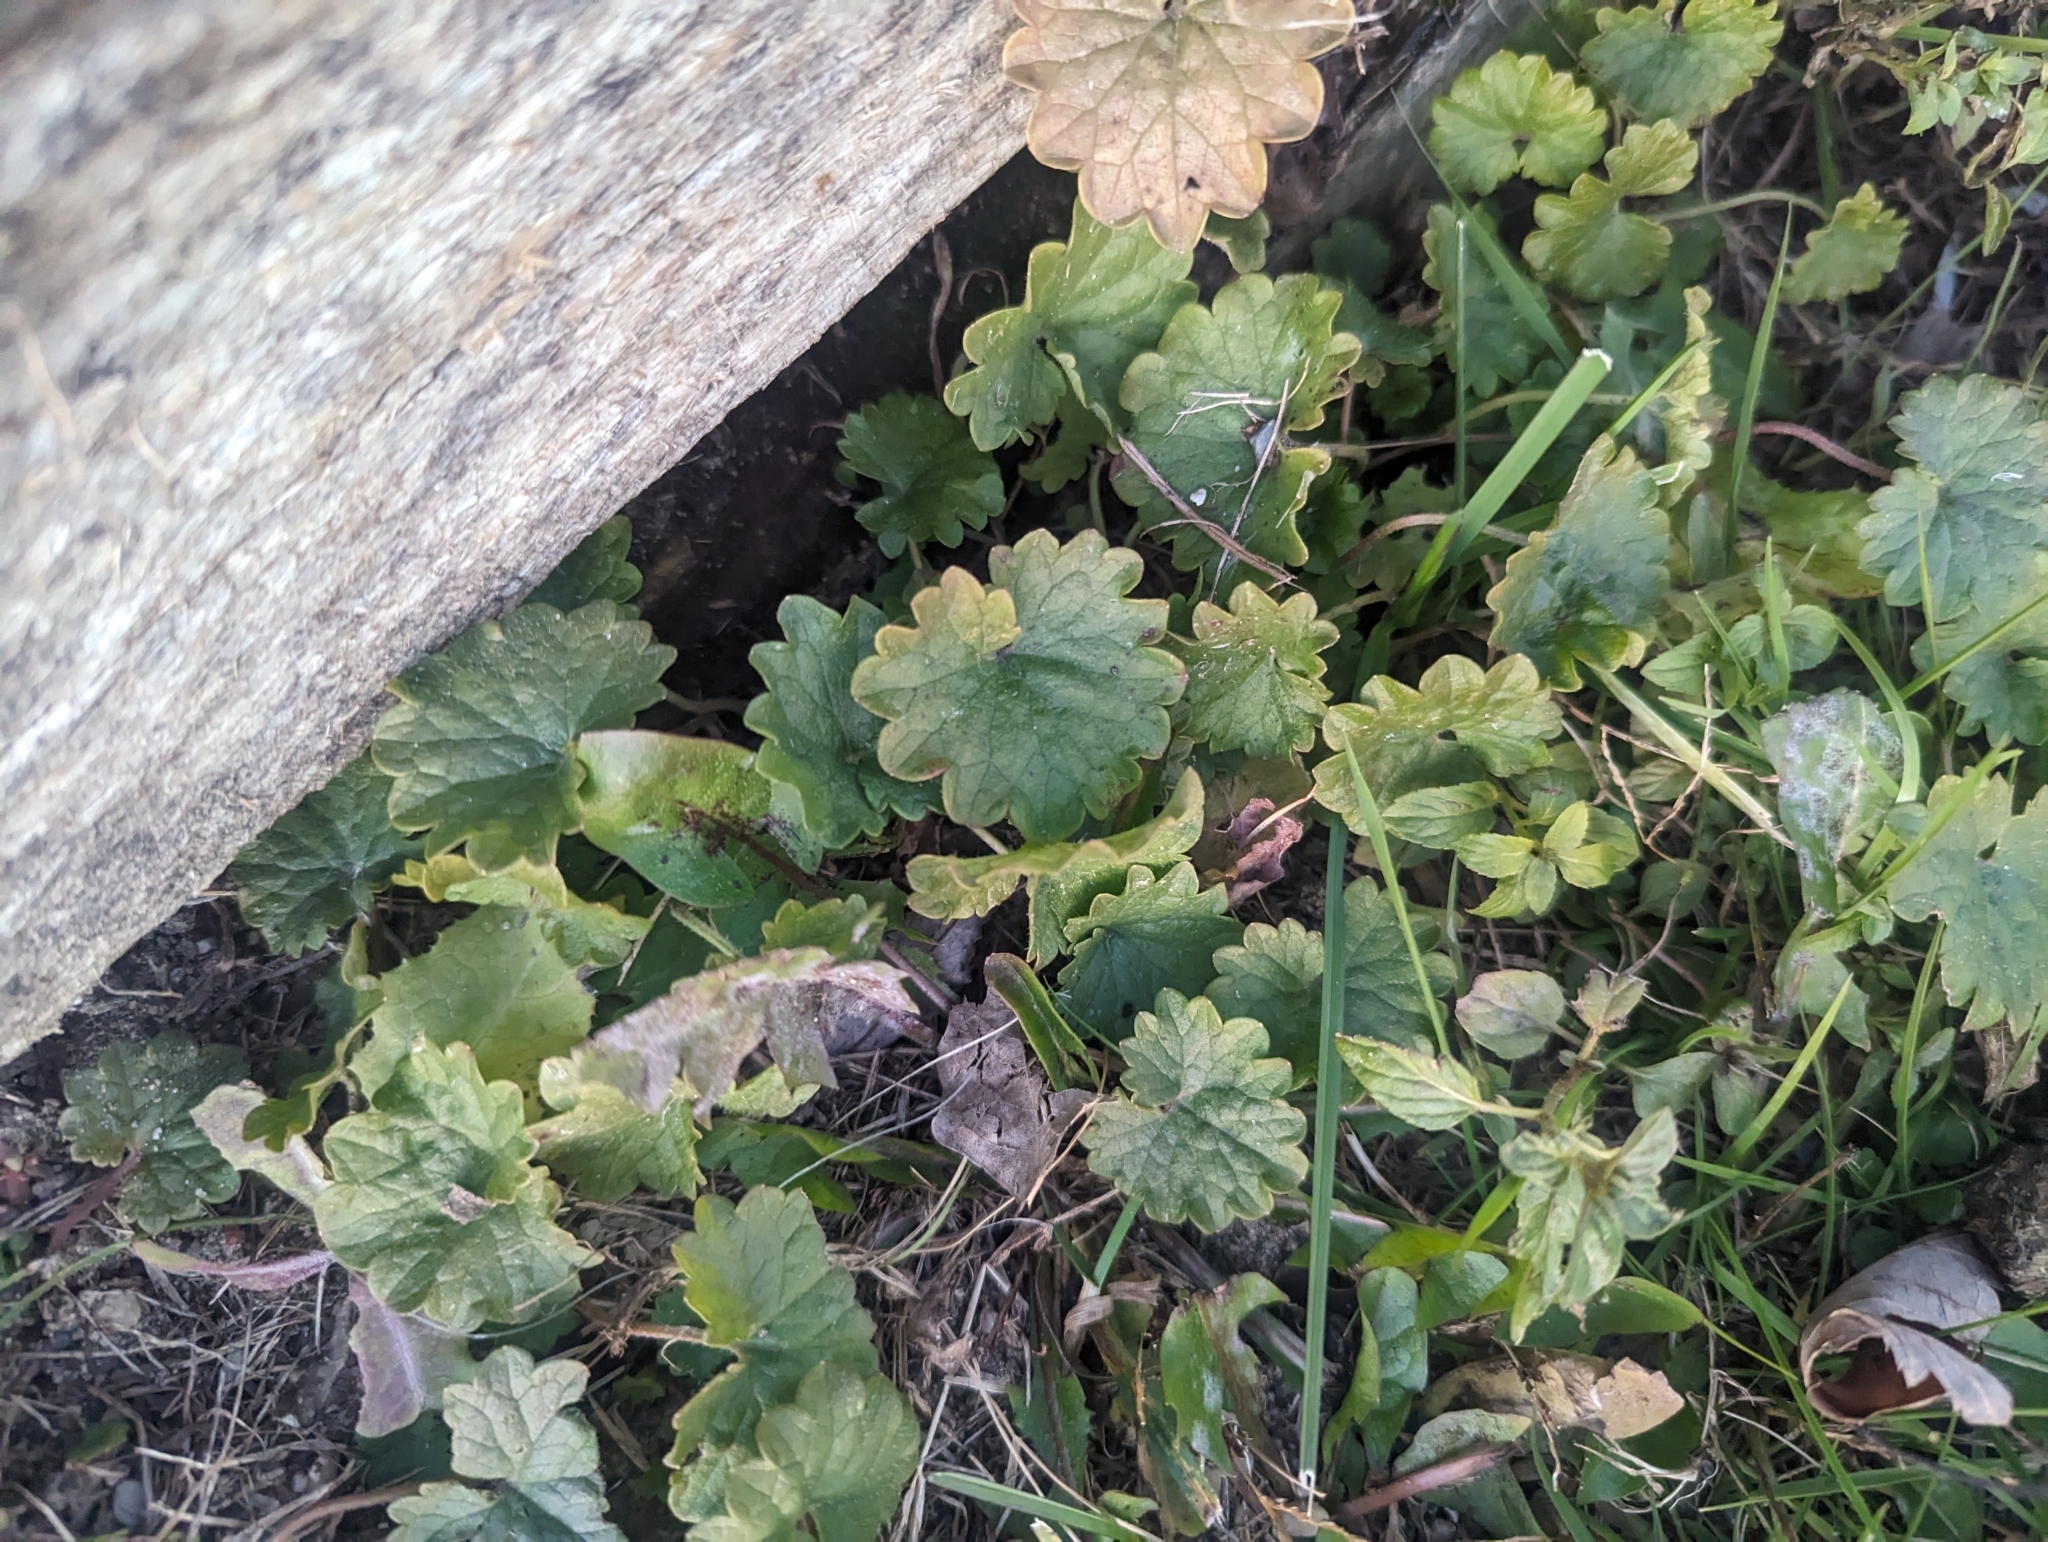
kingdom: Plantae
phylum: Tracheophyta
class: Magnoliopsida
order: Lamiales
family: Lamiaceae
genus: Glechoma
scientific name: Glechoma hederacea
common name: Ground ivy
